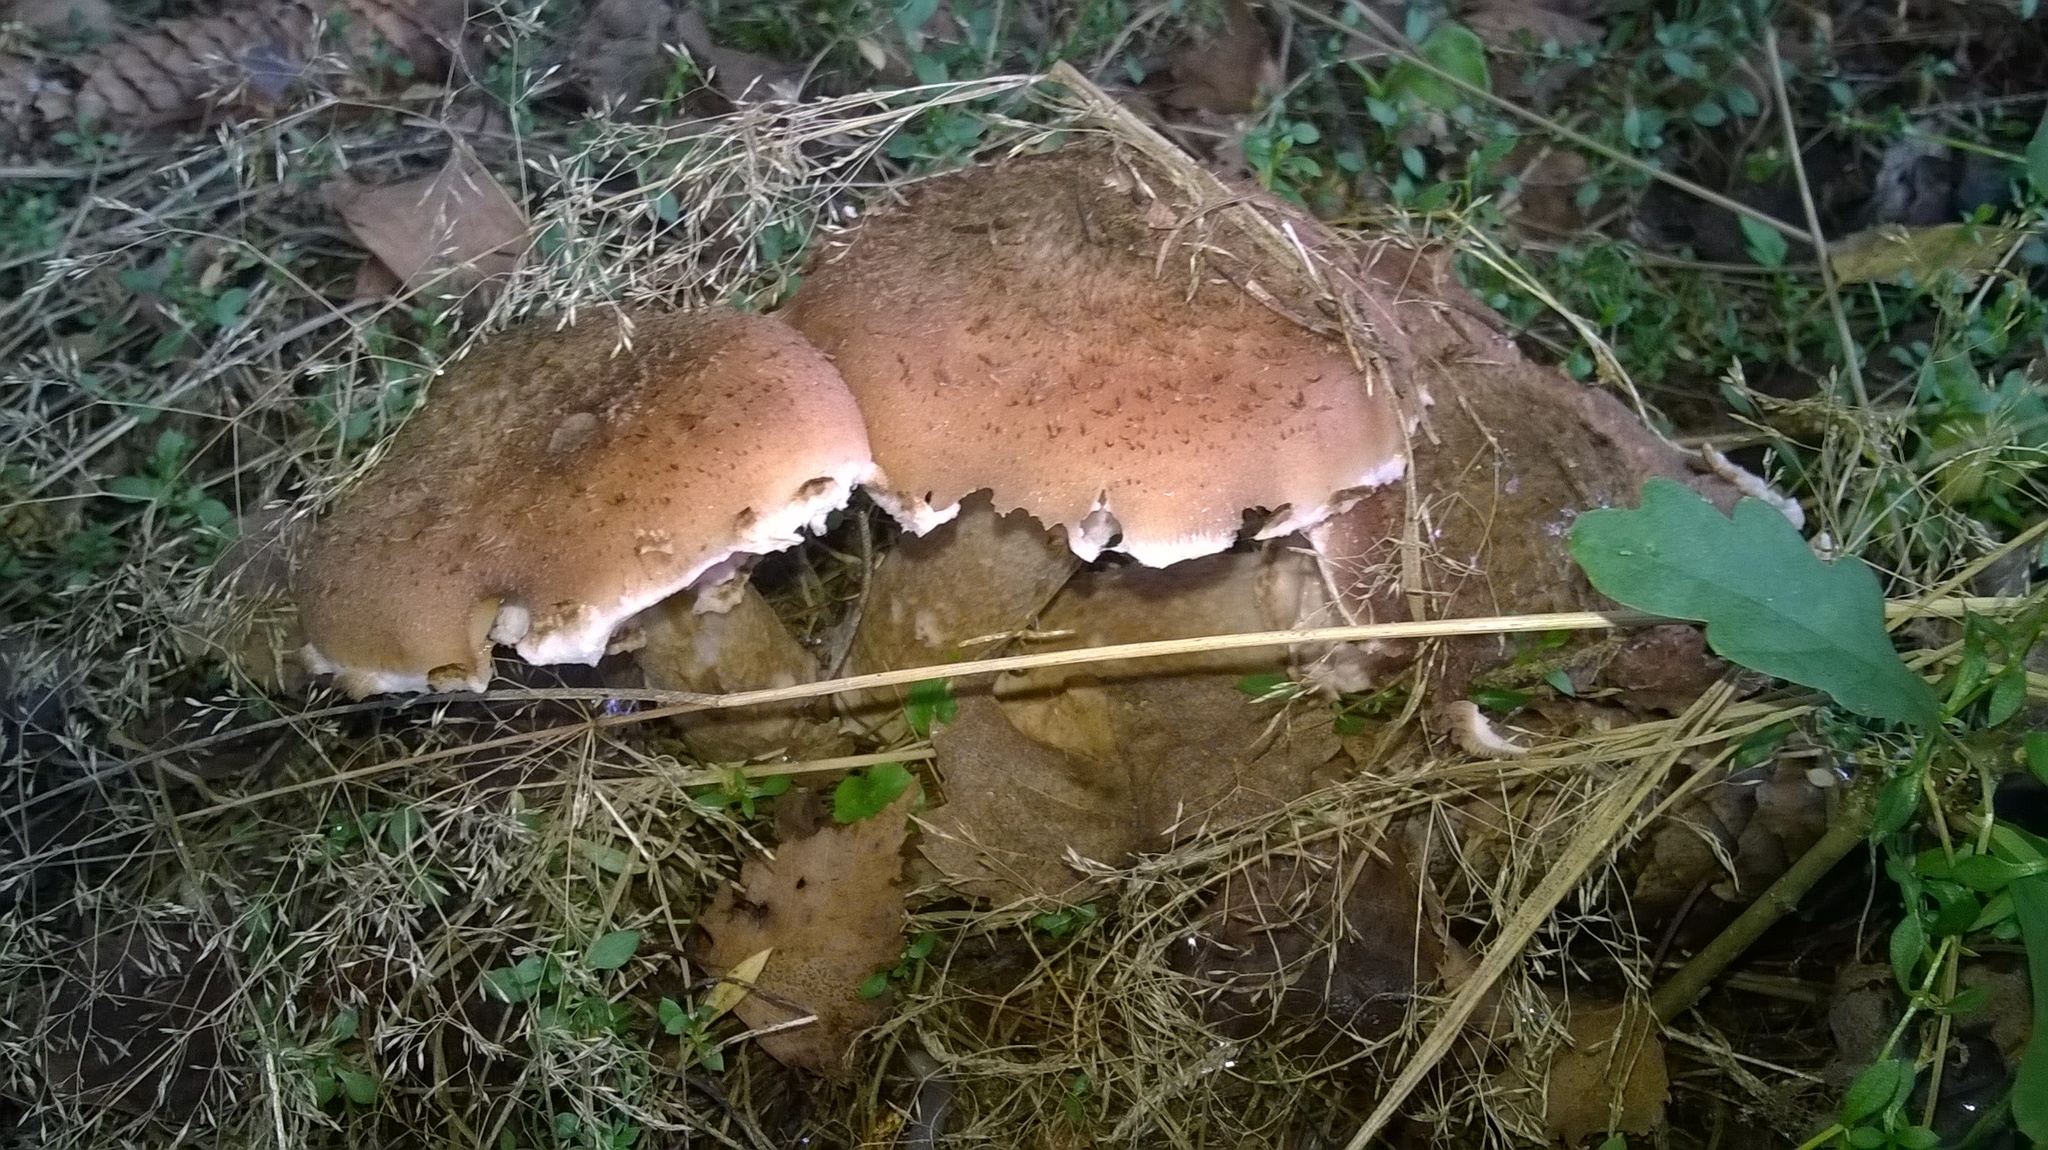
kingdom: Fungi
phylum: Basidiomycota
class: Agaricomycetes
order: Agaricales
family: Physalacriaceae
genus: Armillaria
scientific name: Armillaria ostoyae
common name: Dark honey fungus
